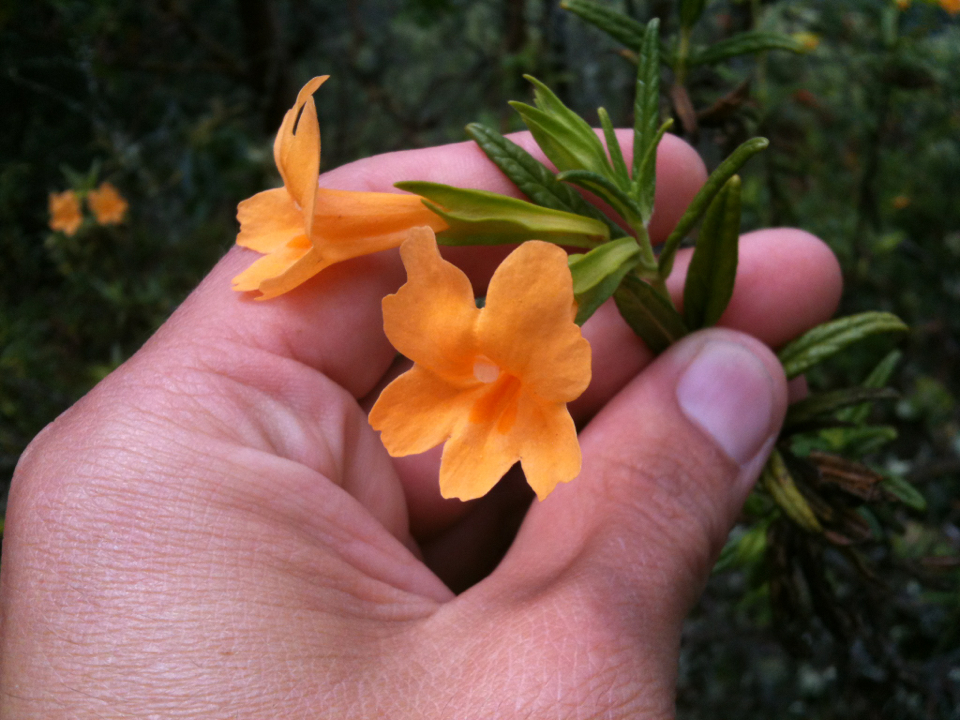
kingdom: Plantae
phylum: Tracheophyta
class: Magnoliopsida
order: Lamiales
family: Phrymaceae
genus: Diplacus
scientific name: Diplacus aurantiacus
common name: Bush monkey-flower
